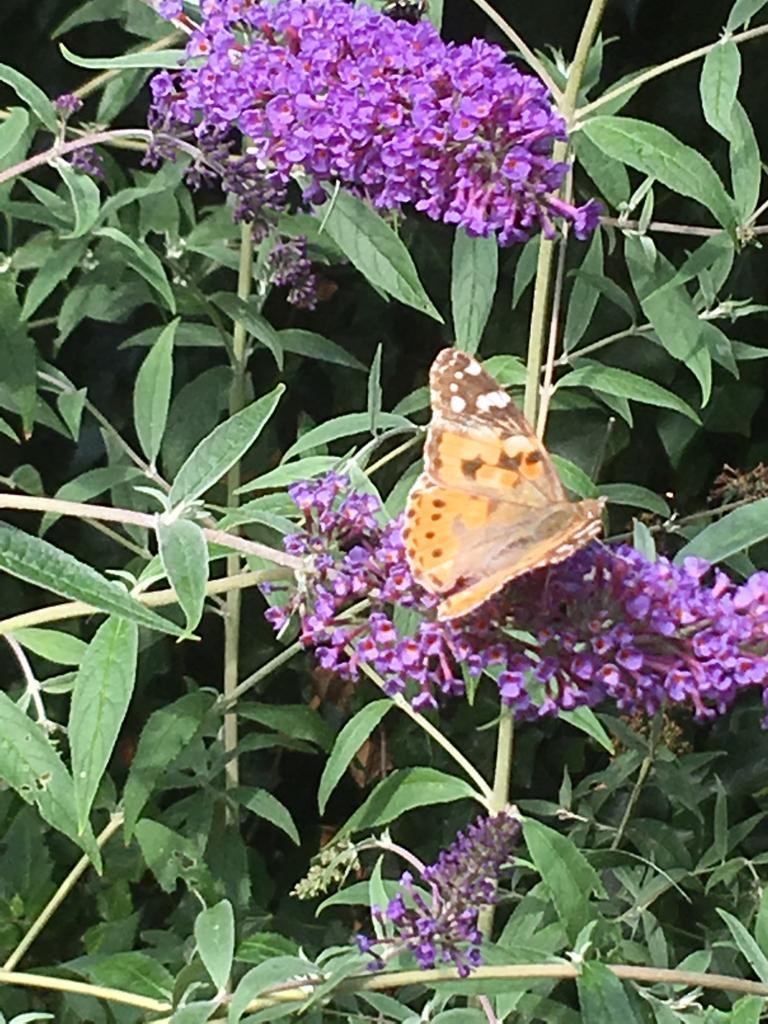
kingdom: Animalia
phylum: Arthropoda
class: Insecta
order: Lepidoptera
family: Nymphalidae
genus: Vanessa
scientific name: Vanessa cardui
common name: Painted lady
